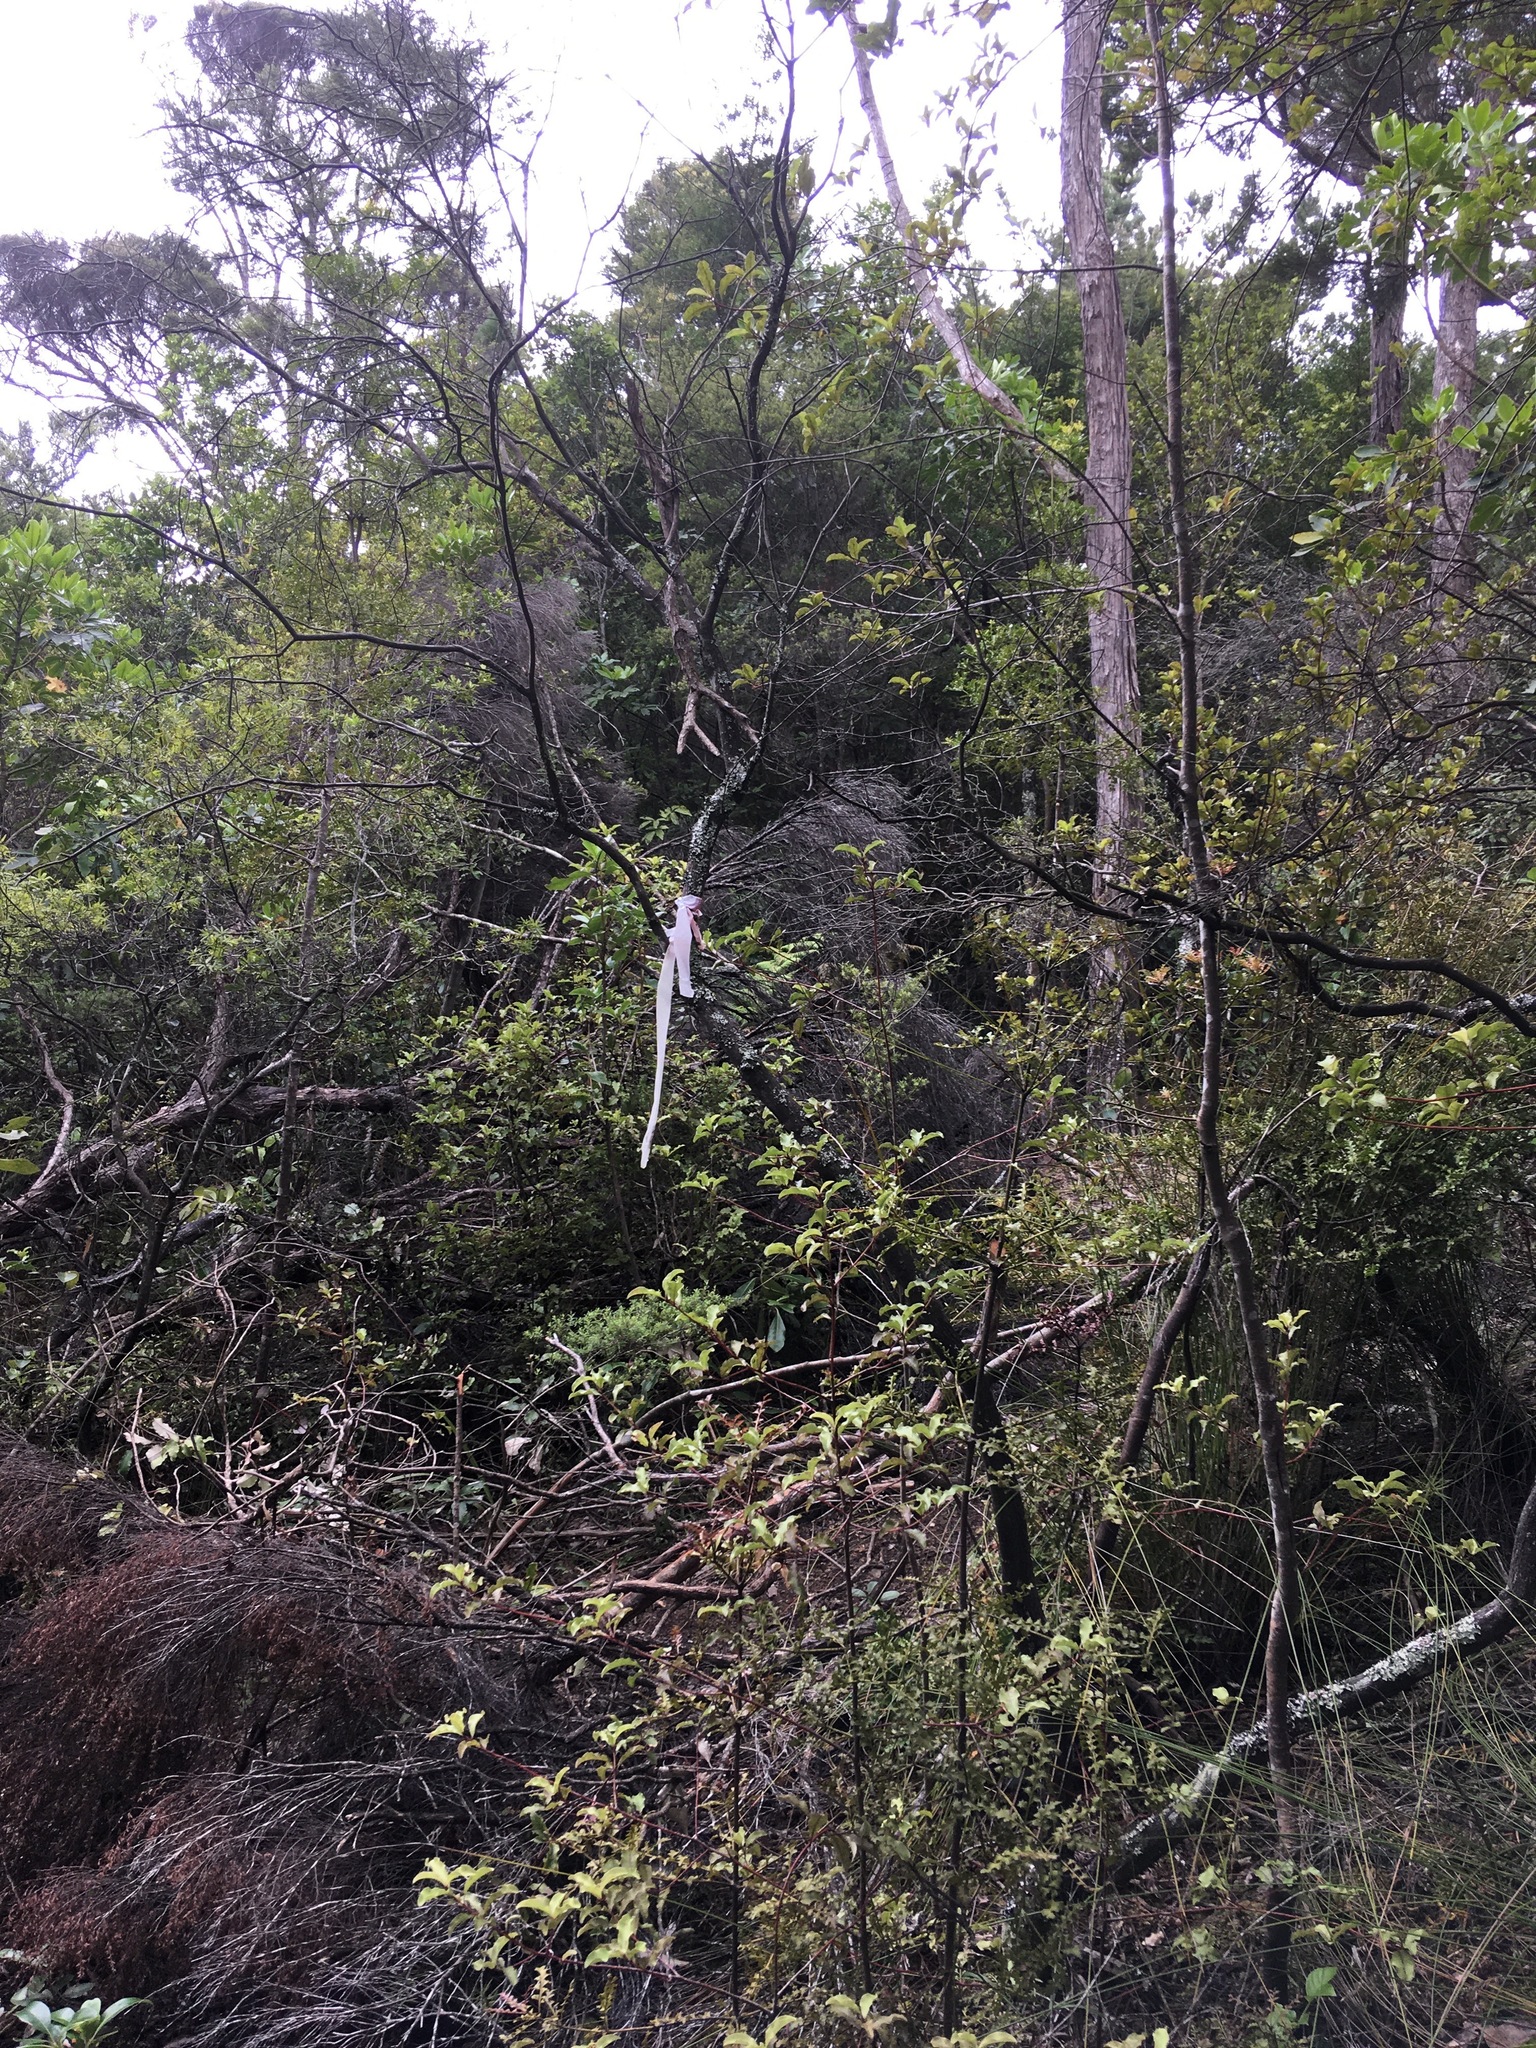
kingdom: Plantae
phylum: Tracheophyta
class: Pinopsida
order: Pinales
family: Phyllocladaceae
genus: Phyllocladus
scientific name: Phyllocladus trichomanoides
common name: Celery pine
